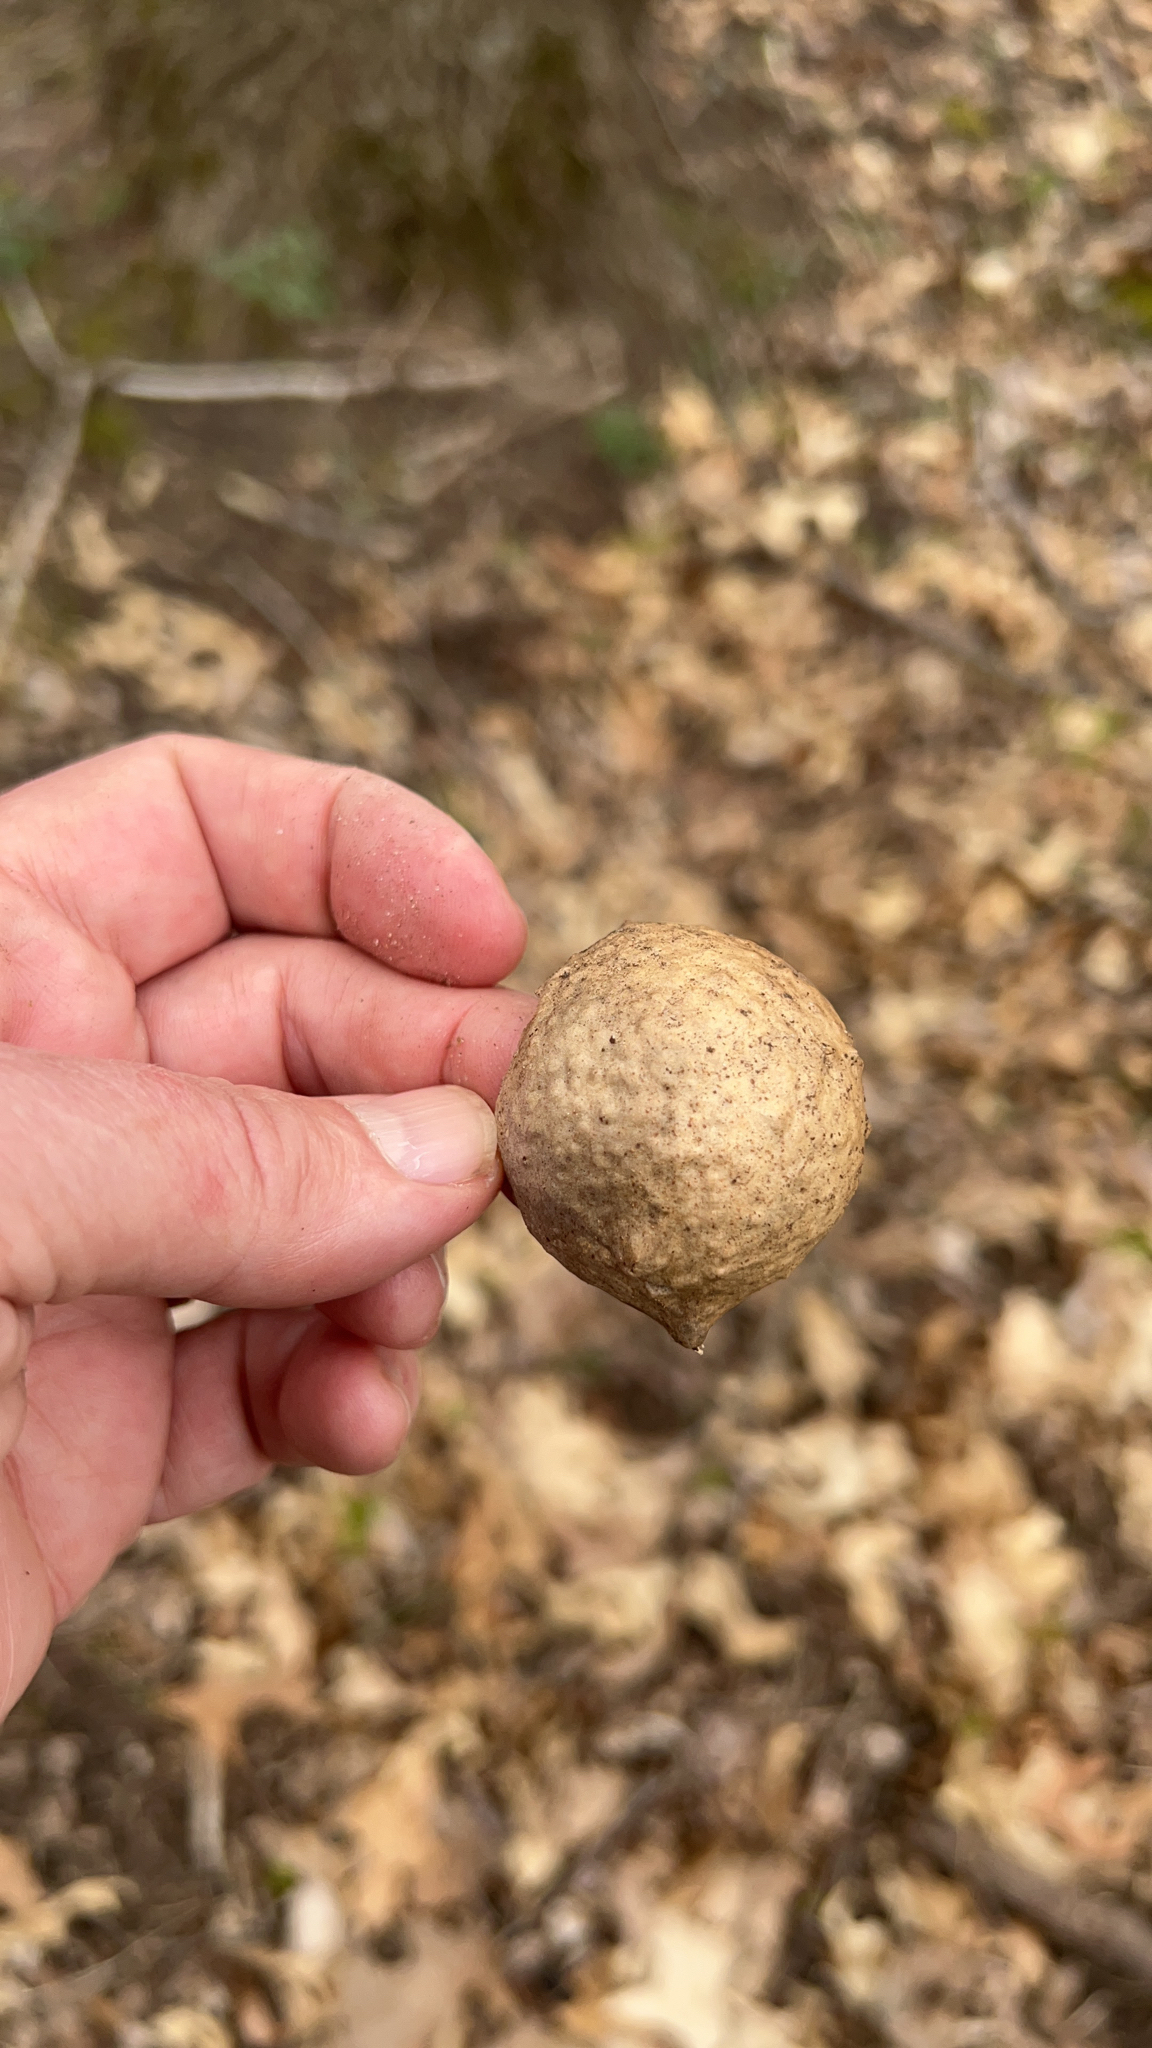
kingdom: Animalia
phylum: Arthropoda
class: Insecta
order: Hymenoptera
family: Cynipidae
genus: Amphibolips
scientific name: Amphibolips
